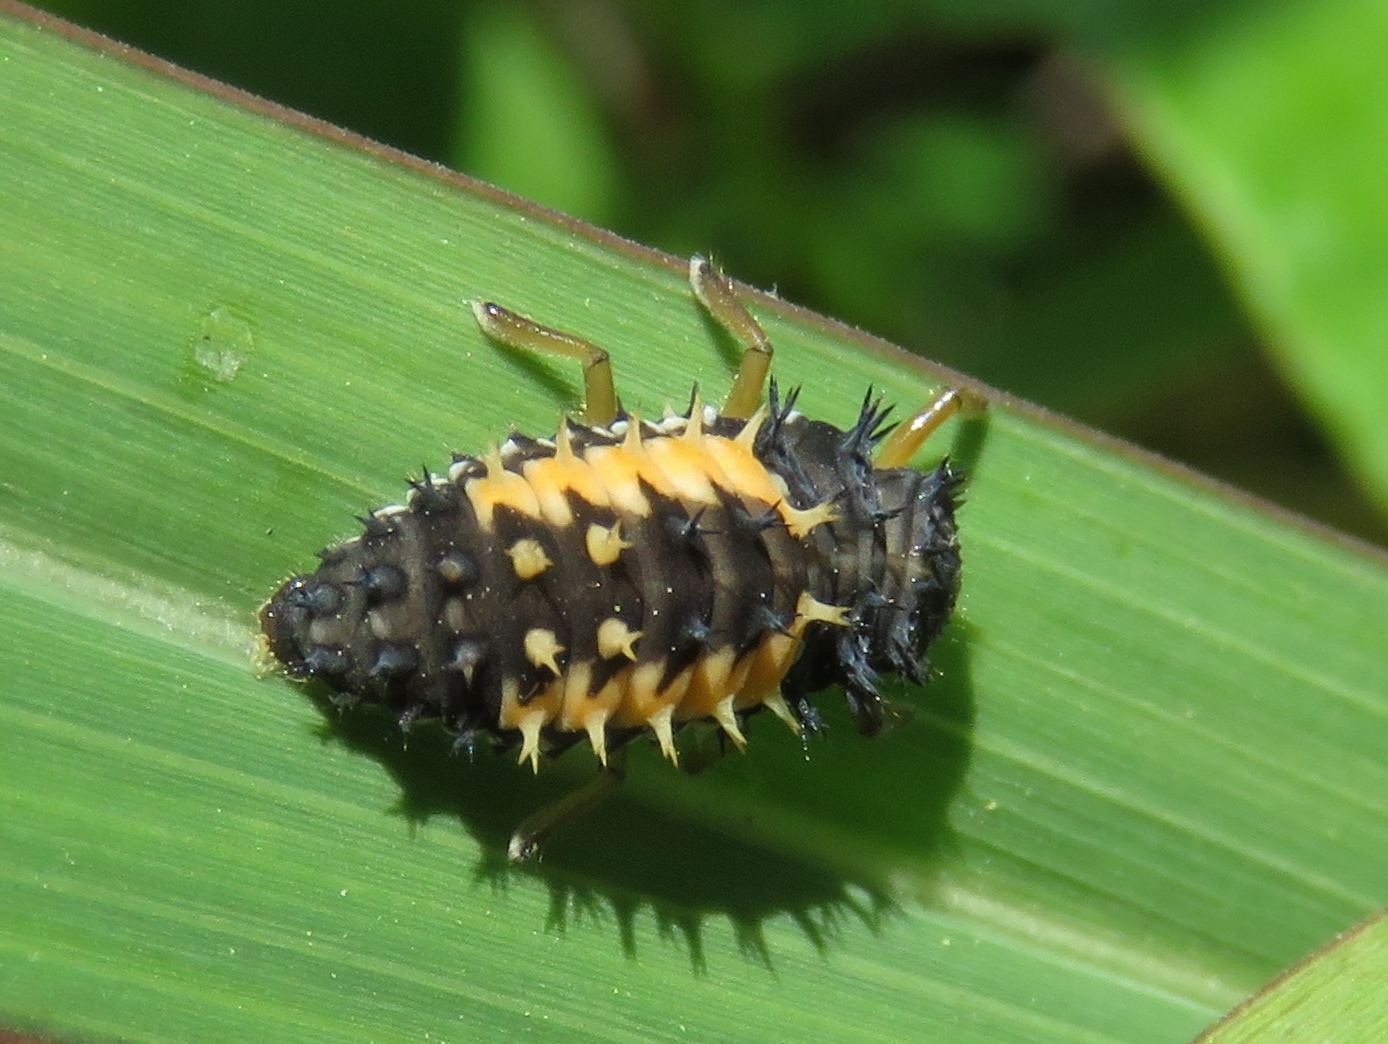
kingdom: Animalia
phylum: Arthropoda
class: Insecta
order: Coleoptera
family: Coccinellidae
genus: Harmonia
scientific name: Harmonia axyridis
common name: Harlequin ladybird
